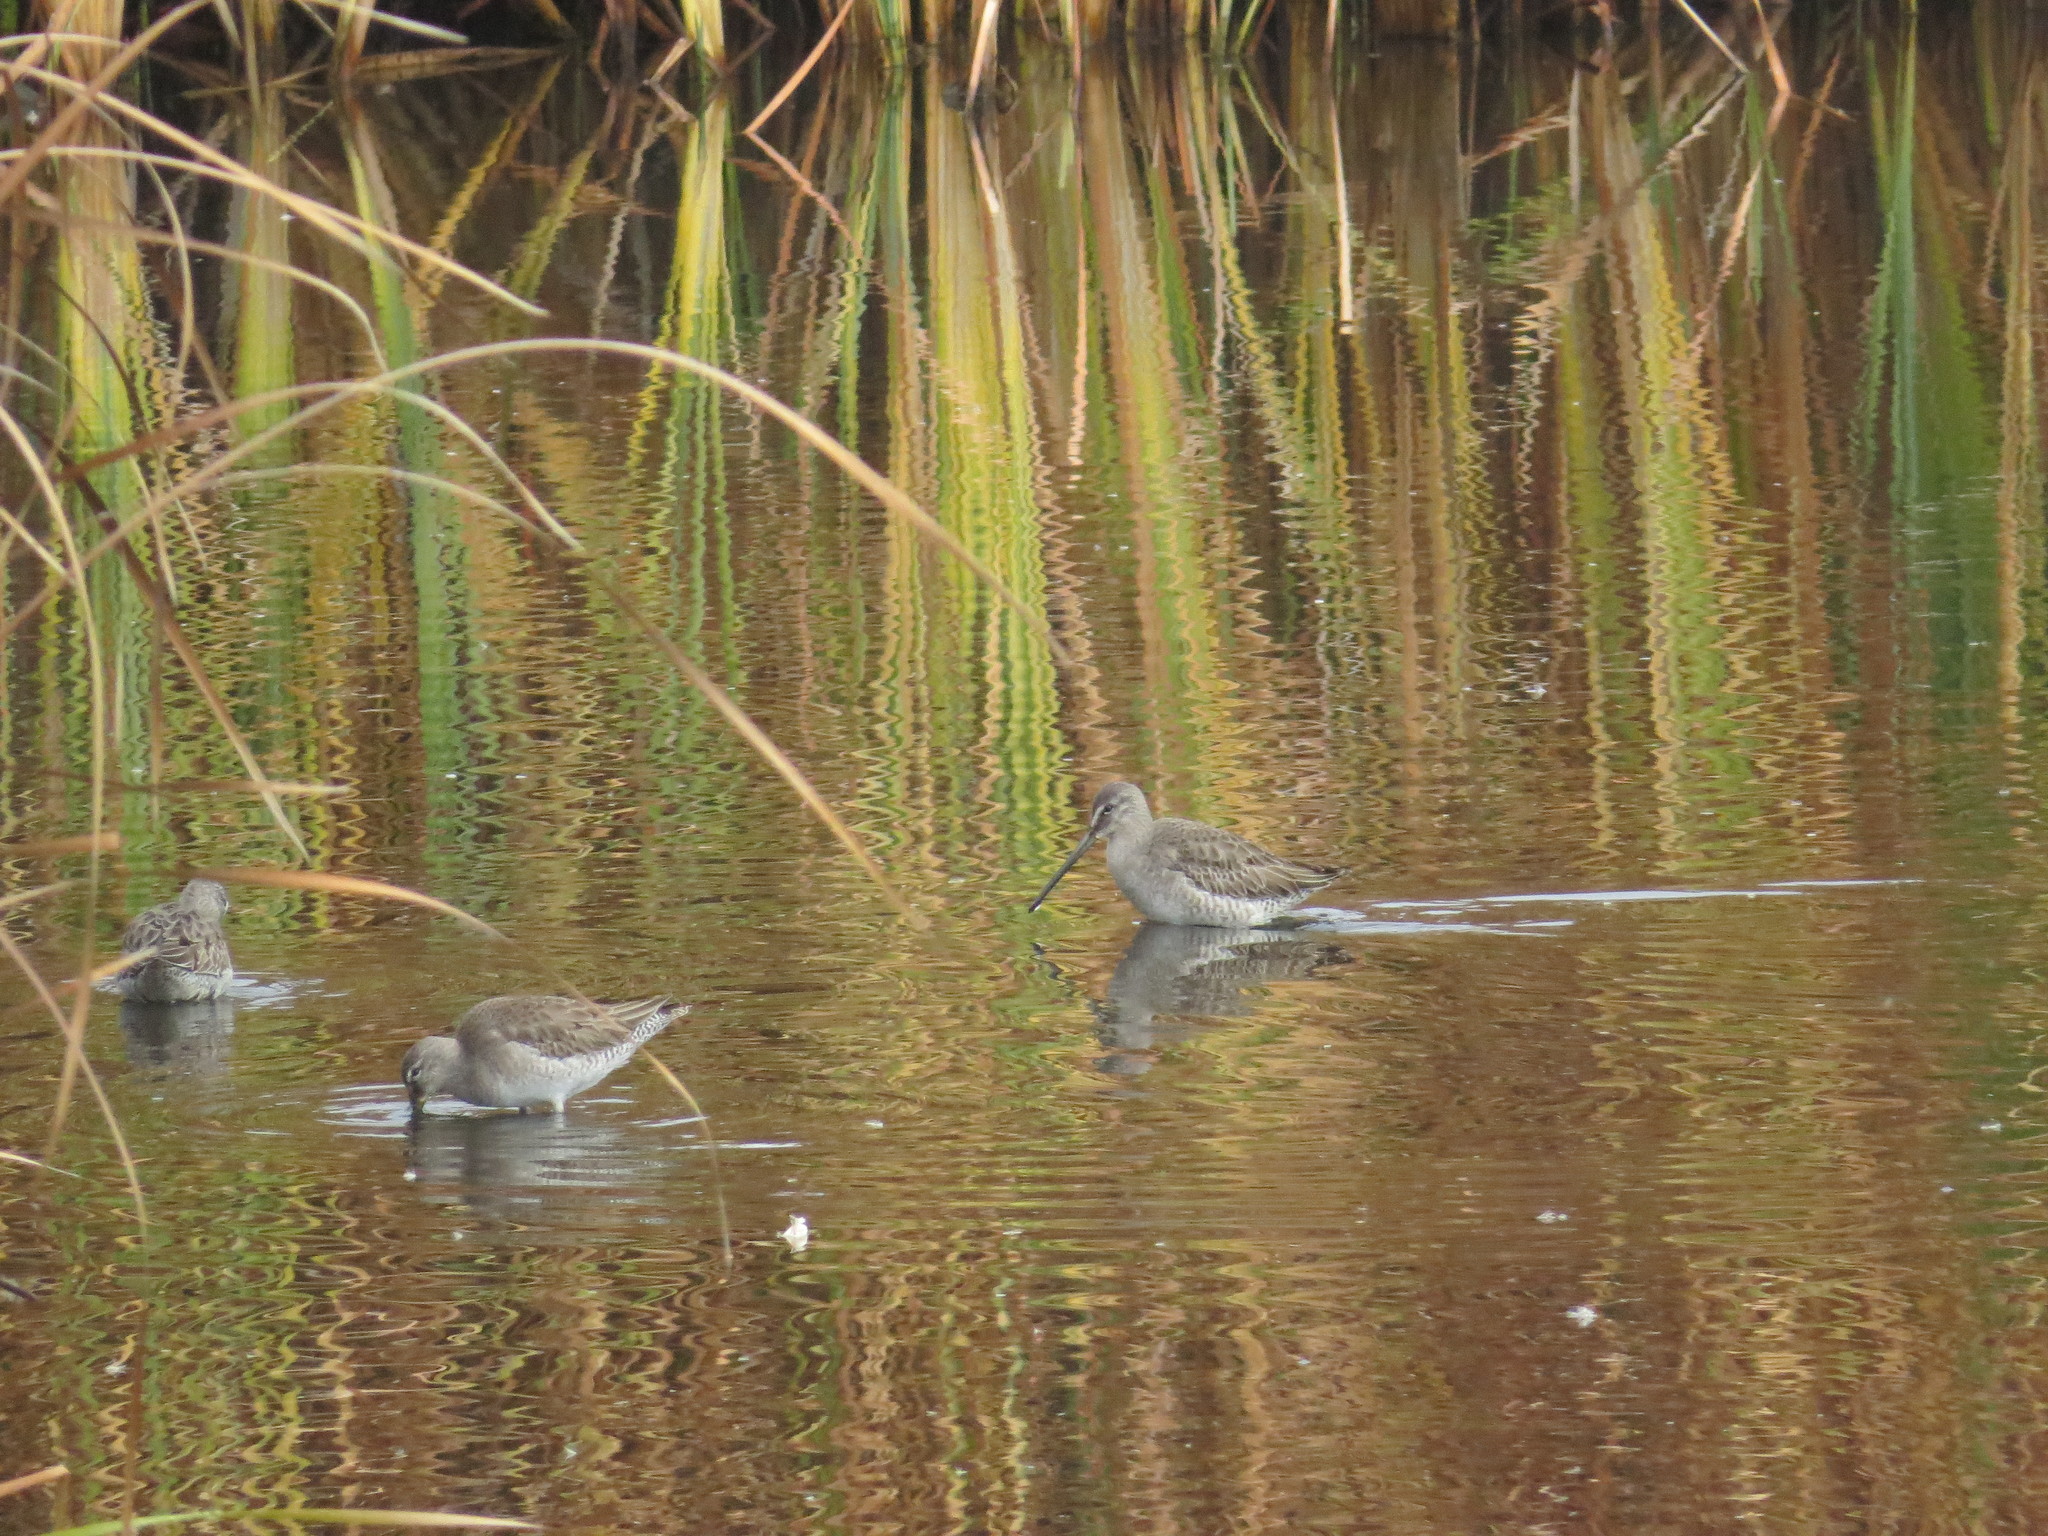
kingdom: Animalia
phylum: Chordata
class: Aves
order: Charadriiformes
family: Scolopacidae
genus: Limnodromus
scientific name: Limnodromus scolopaceus
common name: Long-billed dowitcher
